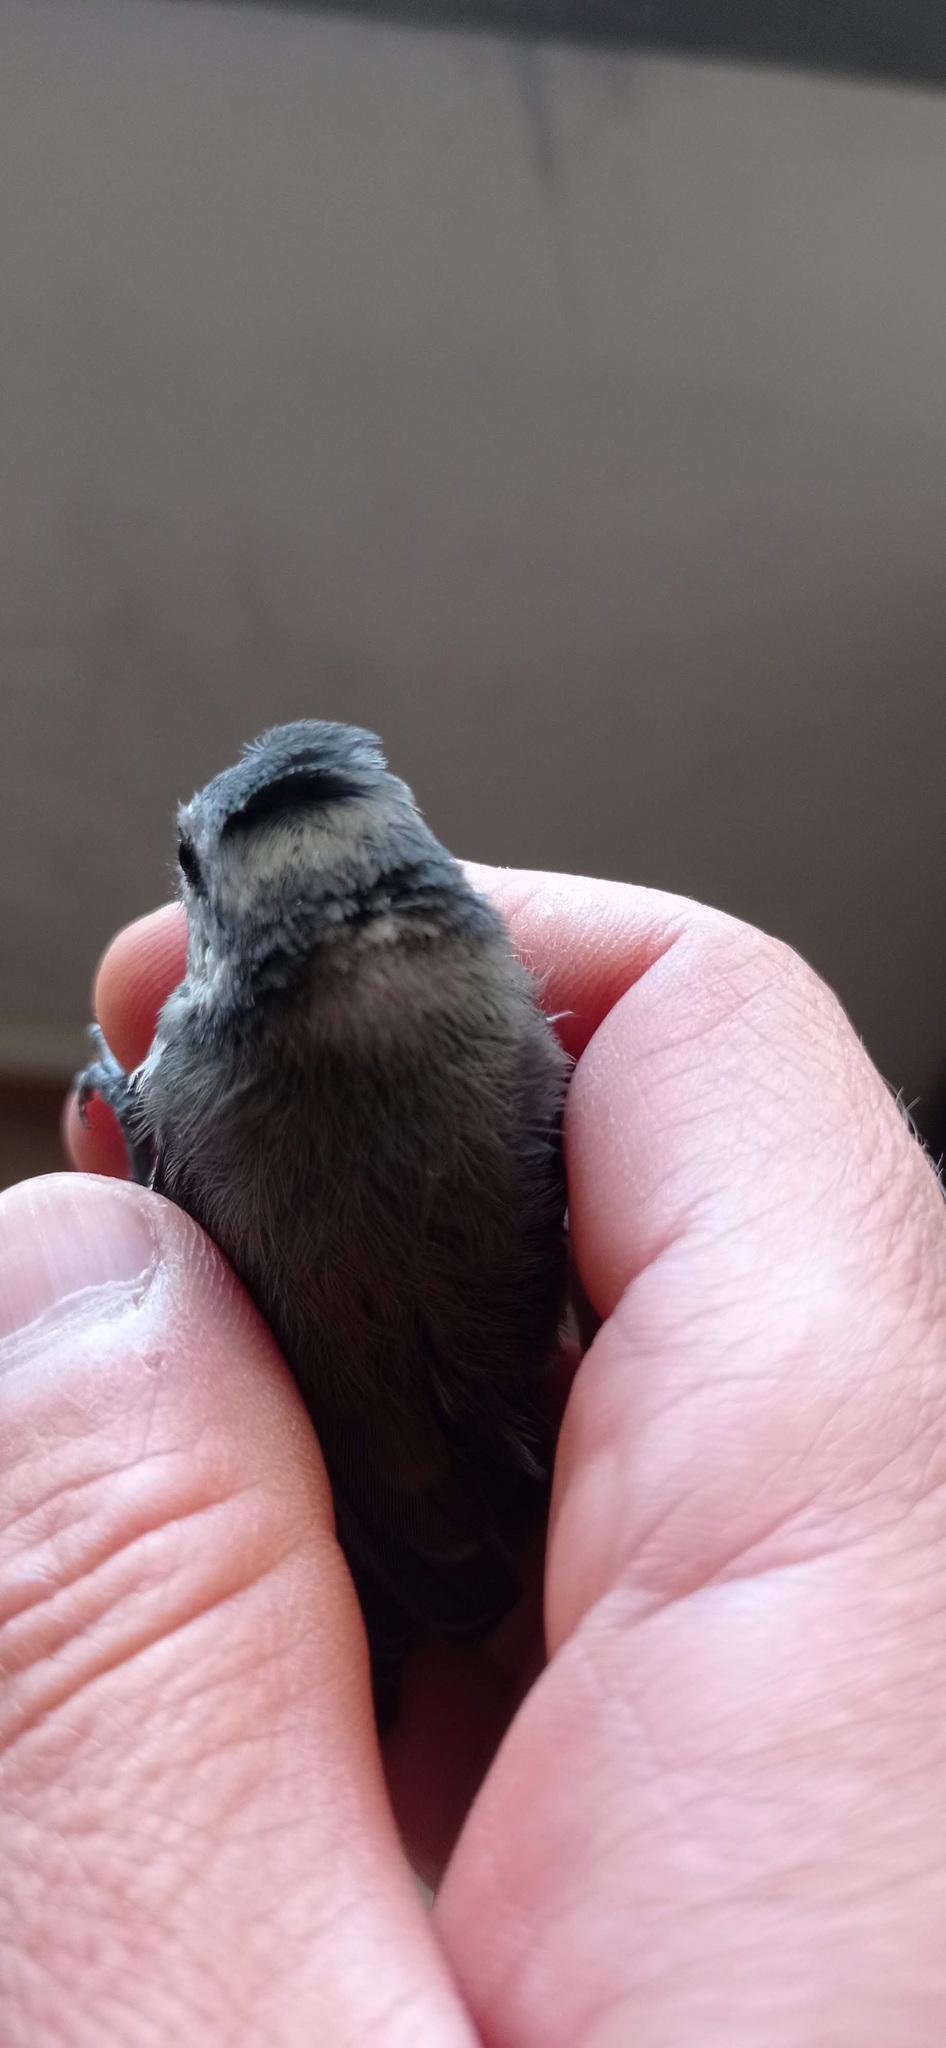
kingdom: Animalia
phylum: Chordata
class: Aves
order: Passeriformes
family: Paridae
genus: Cyanistes
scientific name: Cyanistes caeruleus
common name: Eurasian blue tit
